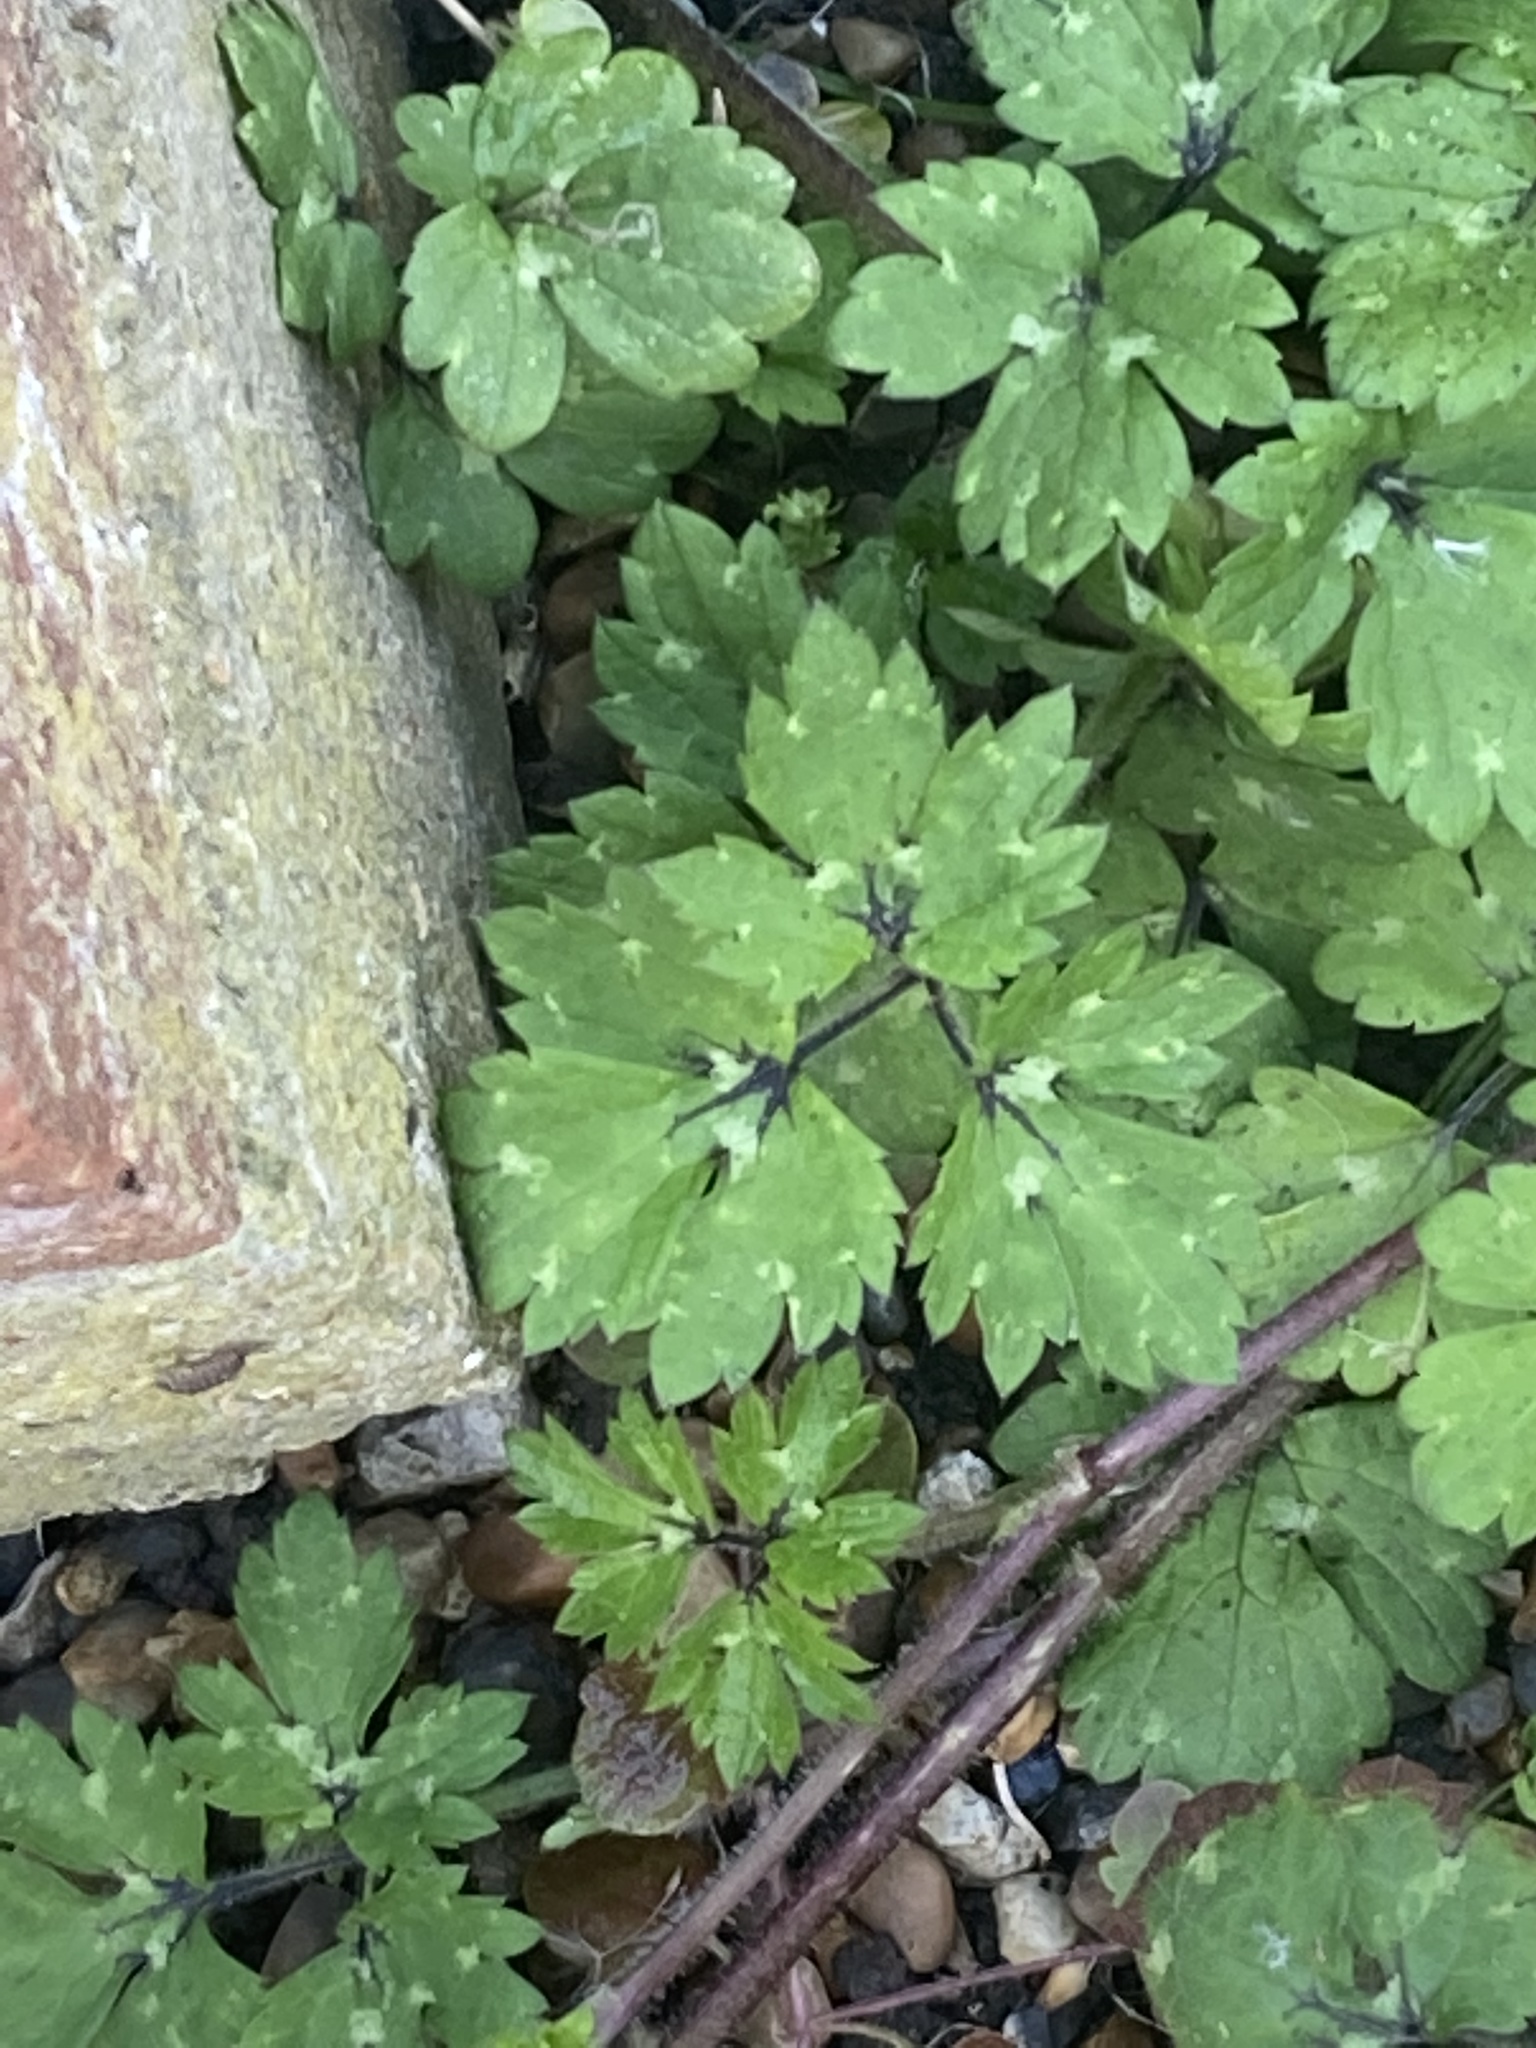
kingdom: Plantae
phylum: Tracheophyta
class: Magnoliopsida
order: Ranunculales
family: Ranunculaceae
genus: Ranunculus
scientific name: Ranunculus repens
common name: Creeping buttercup
